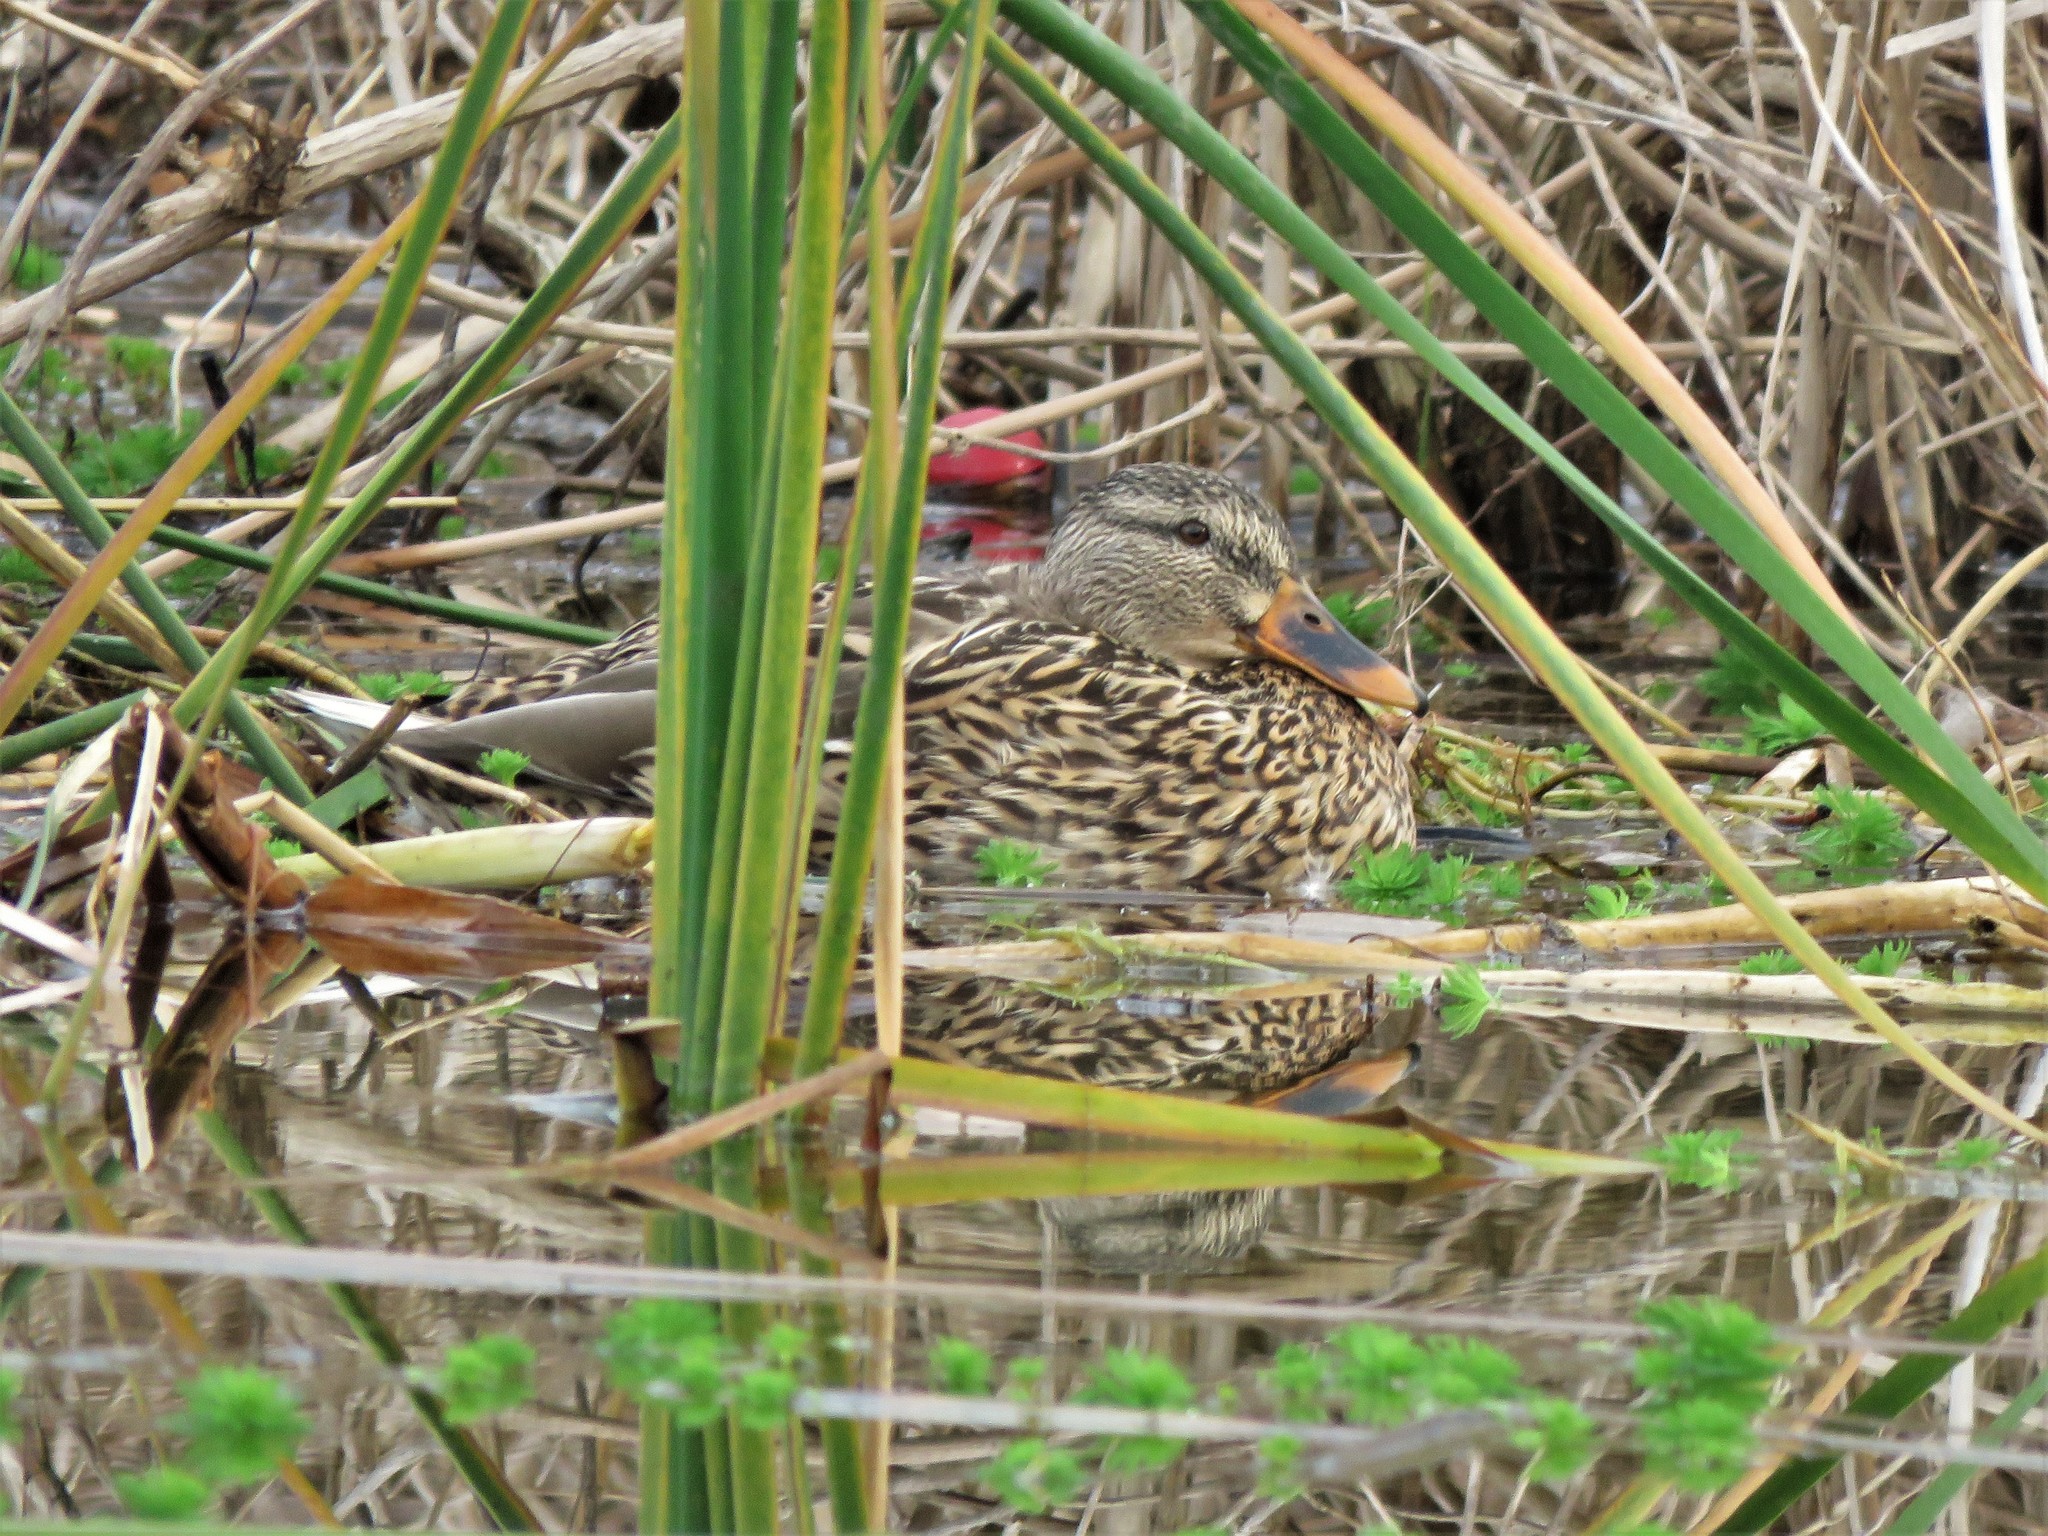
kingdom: Animalia
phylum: Chordata
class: Aves
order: Anseriformes
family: Anatidae
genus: Anas
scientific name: Anas platyrhynchos
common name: Mallard
